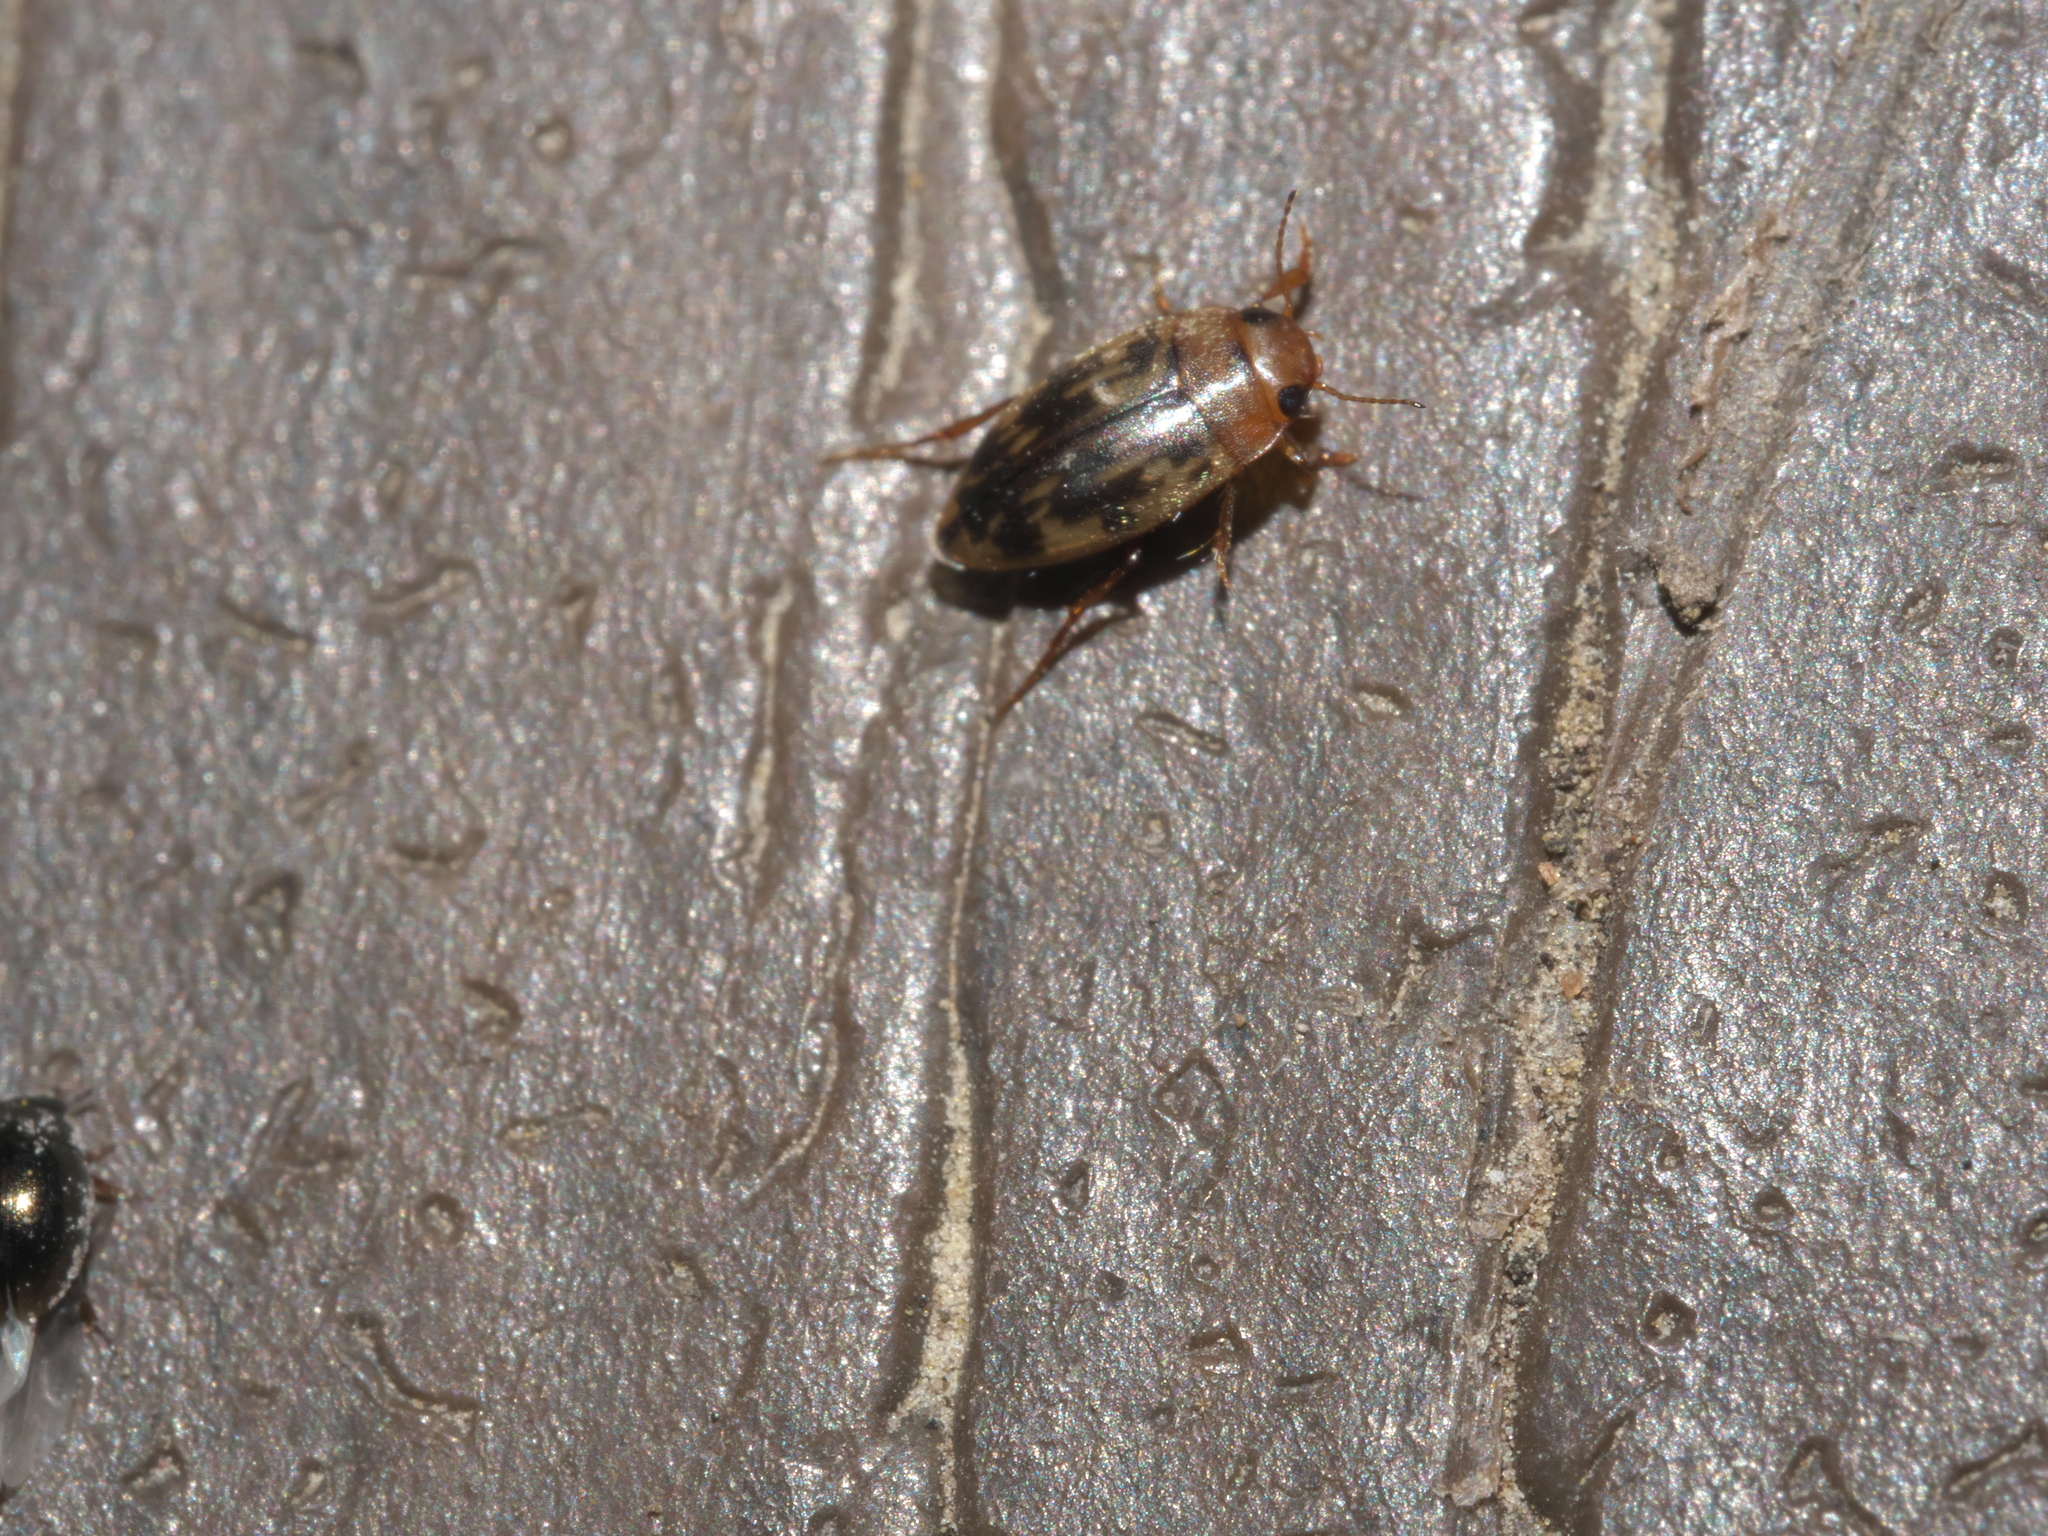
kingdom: Animalia
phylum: Arthropoda
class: Insecta
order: Coleoptera
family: Dytiscidae
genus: Neoporus
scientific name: Neoporus shermani
